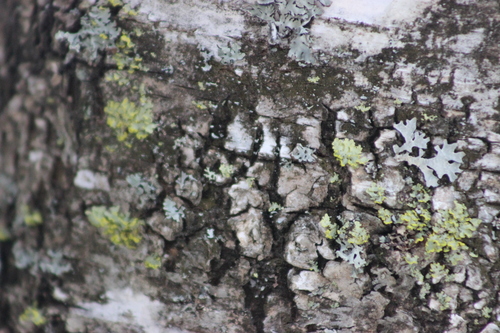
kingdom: Fungi
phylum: Ascomycota
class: Lecanoromycetes
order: Lecanorales
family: Parmeliaceae
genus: Vulpicida
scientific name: Vulpicida pinastri
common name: Powdered sunshine lichen
